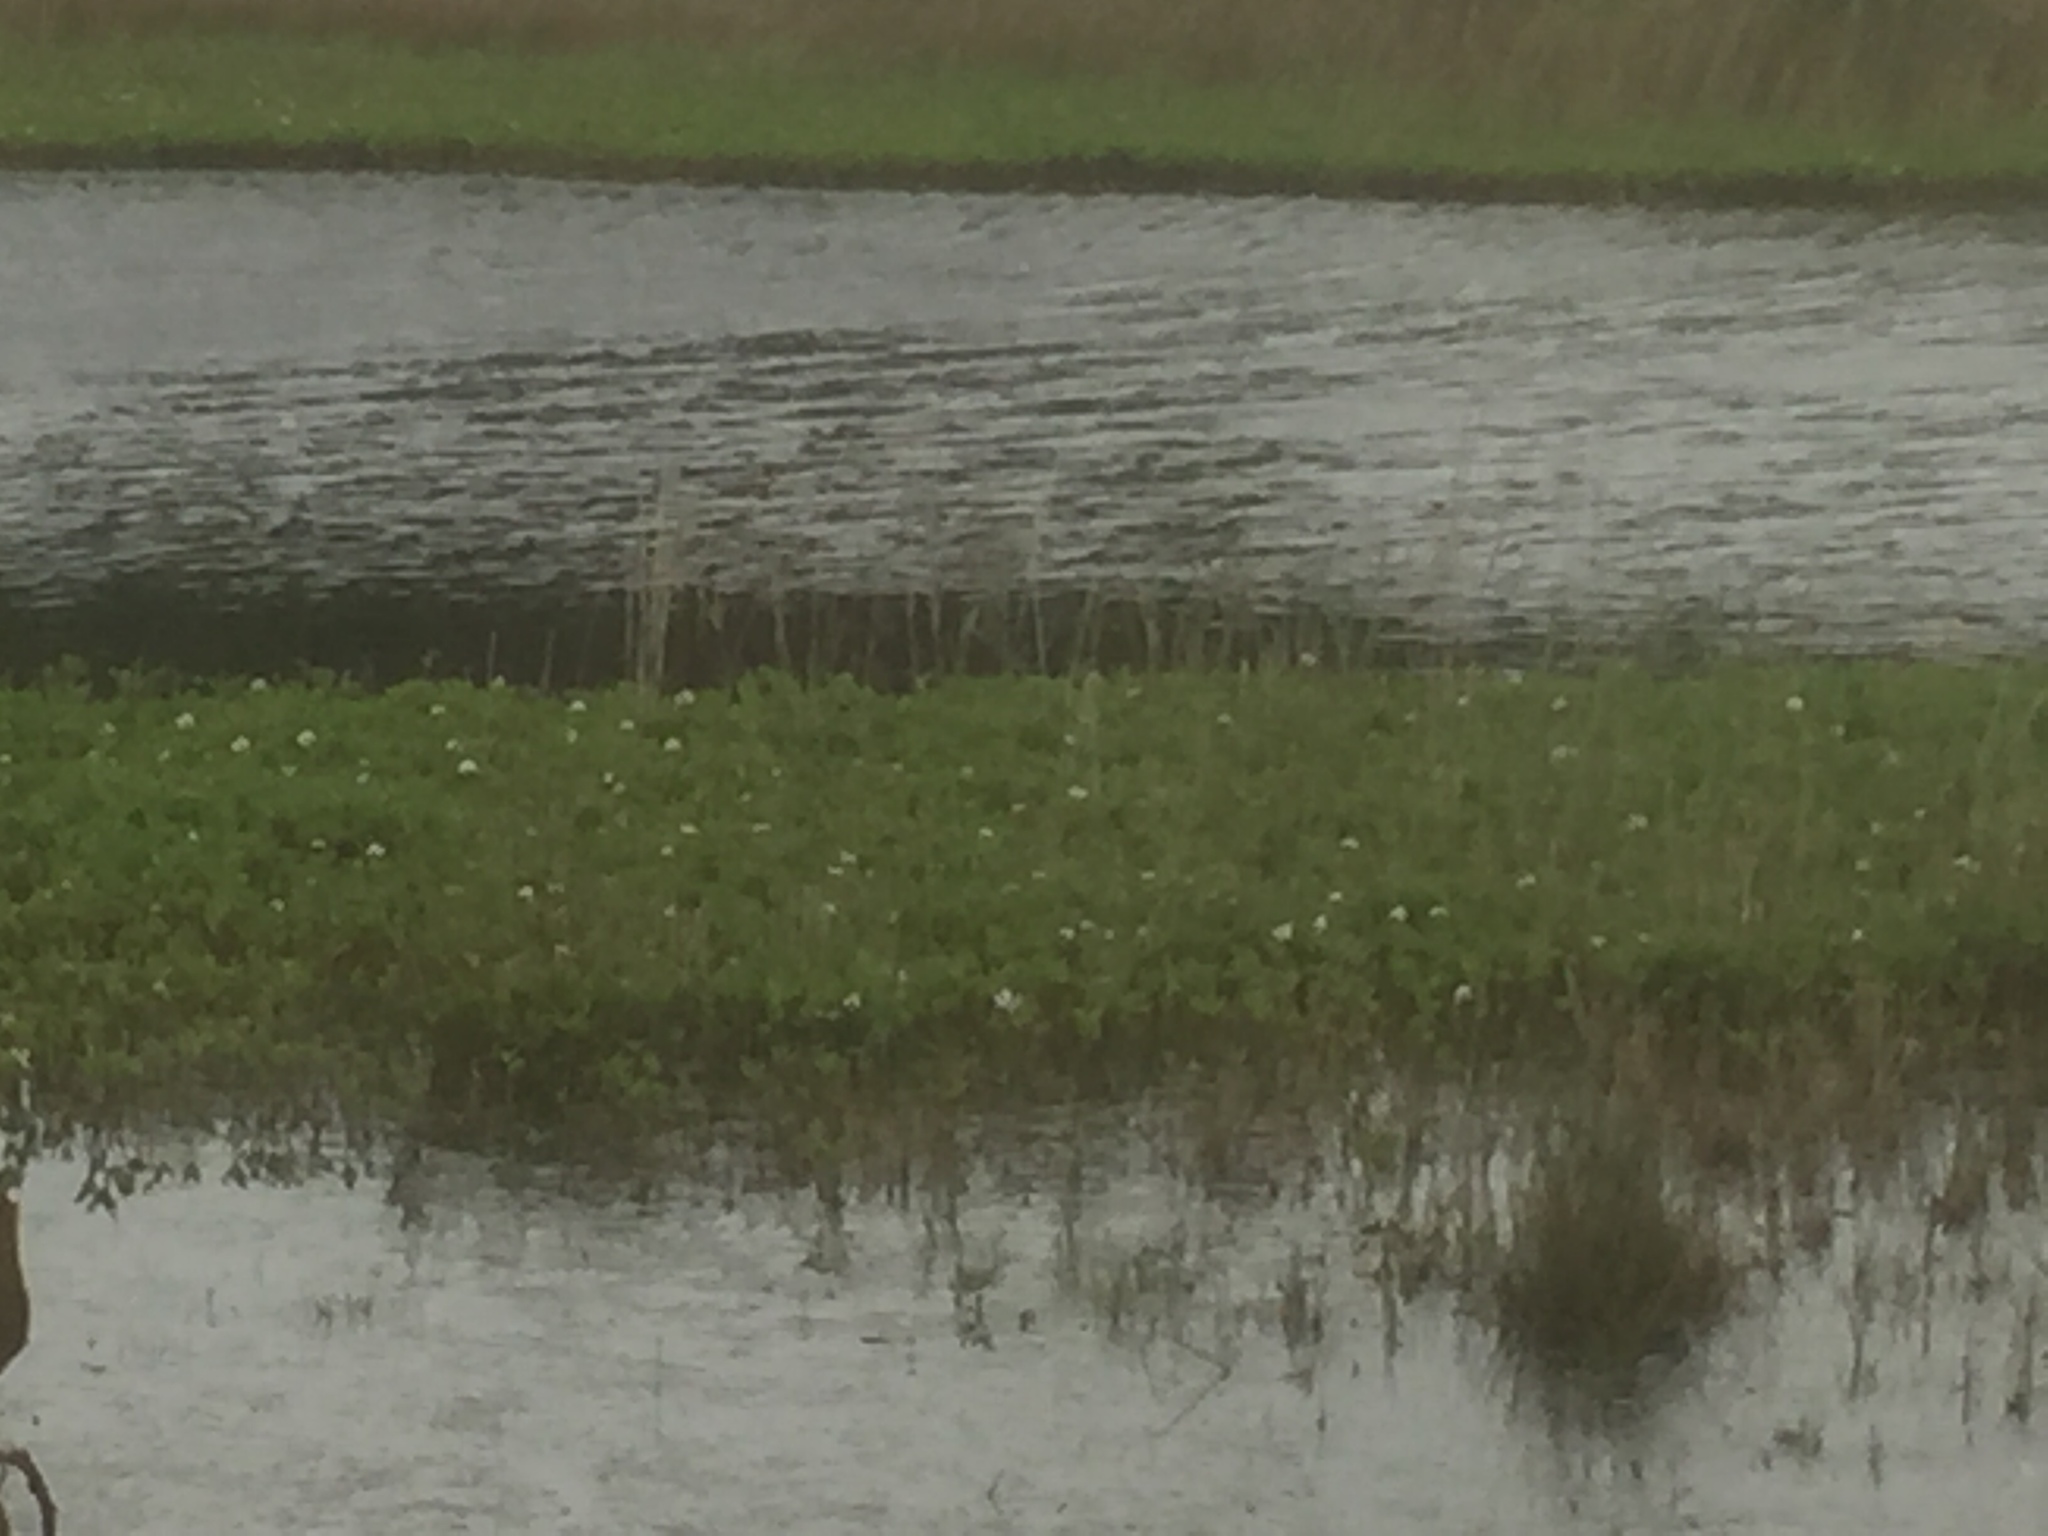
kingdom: Plantae
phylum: Tracheophyta
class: Magnoliopsida
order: Asterales
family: Menyanthaceae
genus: Menyanthes
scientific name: Menyanthes trifoliata
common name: Bogbean
